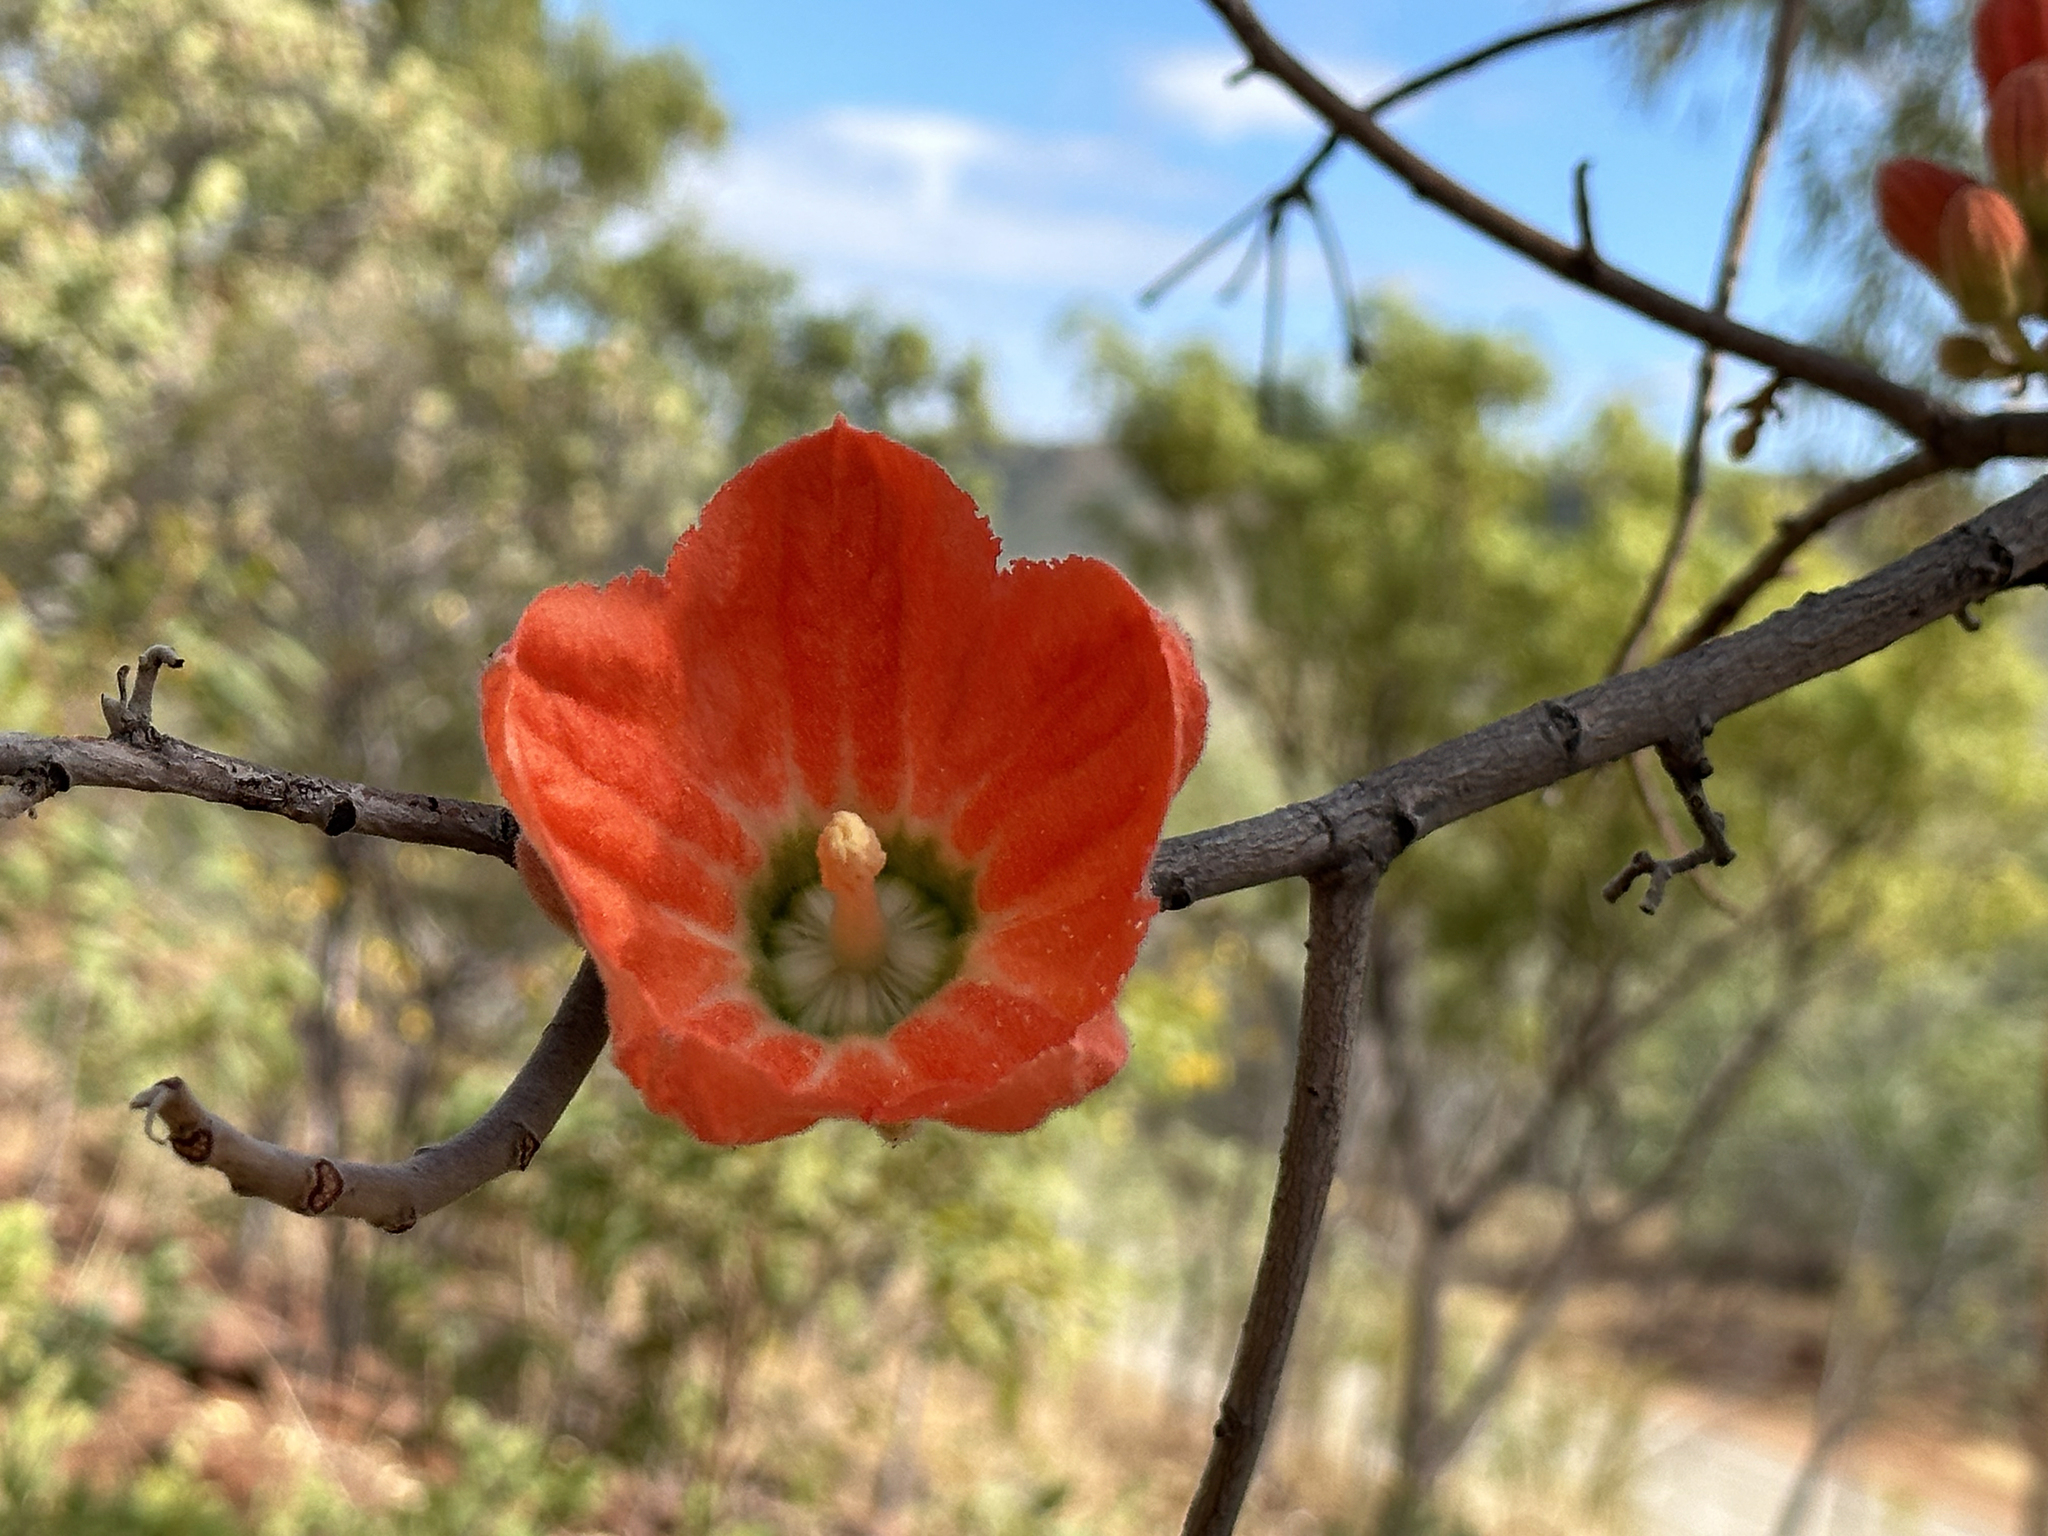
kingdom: Plantae
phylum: Tracheophyta
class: Magnoliopsida
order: Malvales
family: Malvaceae
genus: Brachychiton
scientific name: Brachychiton spectabilis
